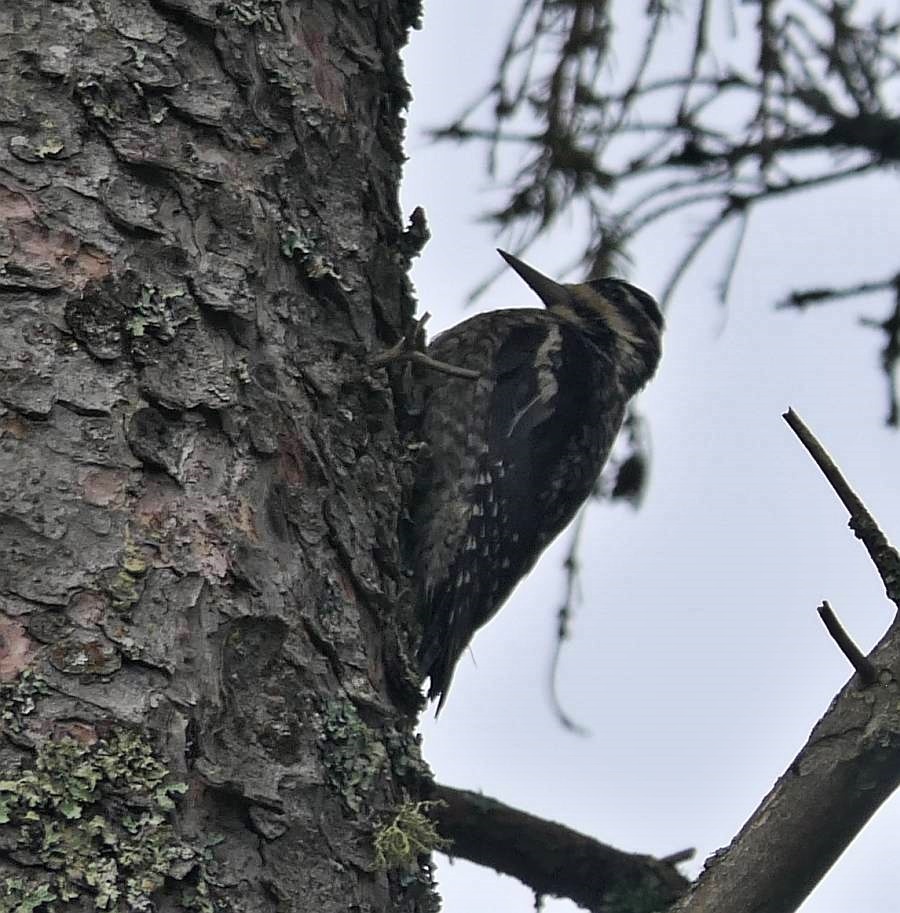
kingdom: Animalia
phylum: Chordata
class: Aves
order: Piciformes
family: Picidae
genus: Sphyrapicus
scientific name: Sphyrapicus varius
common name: Yellow-bellied sapsucker
